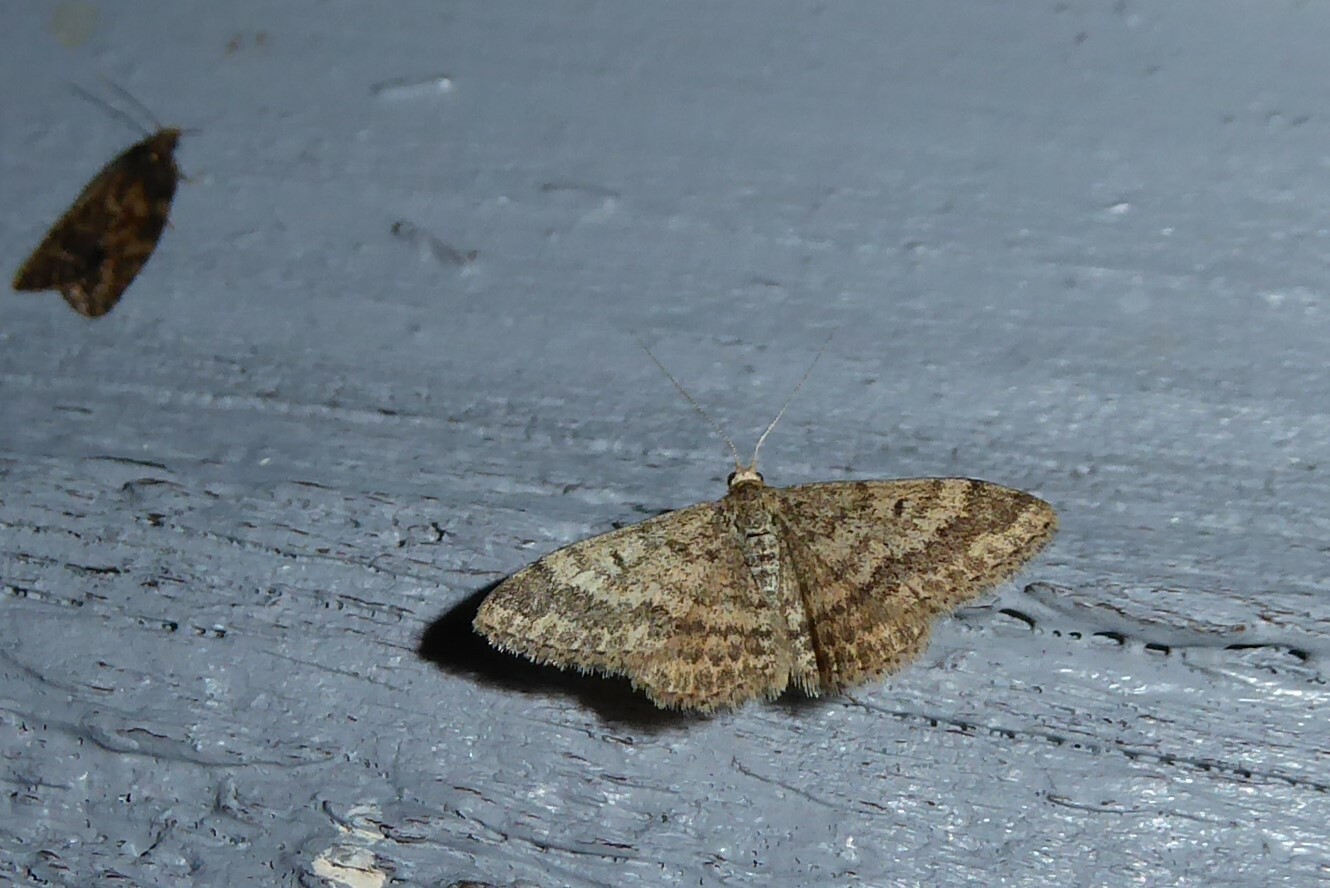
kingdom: Animalia
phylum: Arthropoda
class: Insecta
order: Lepidoptera
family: Geometridae
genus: Scopula
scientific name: Scopula rubraria
